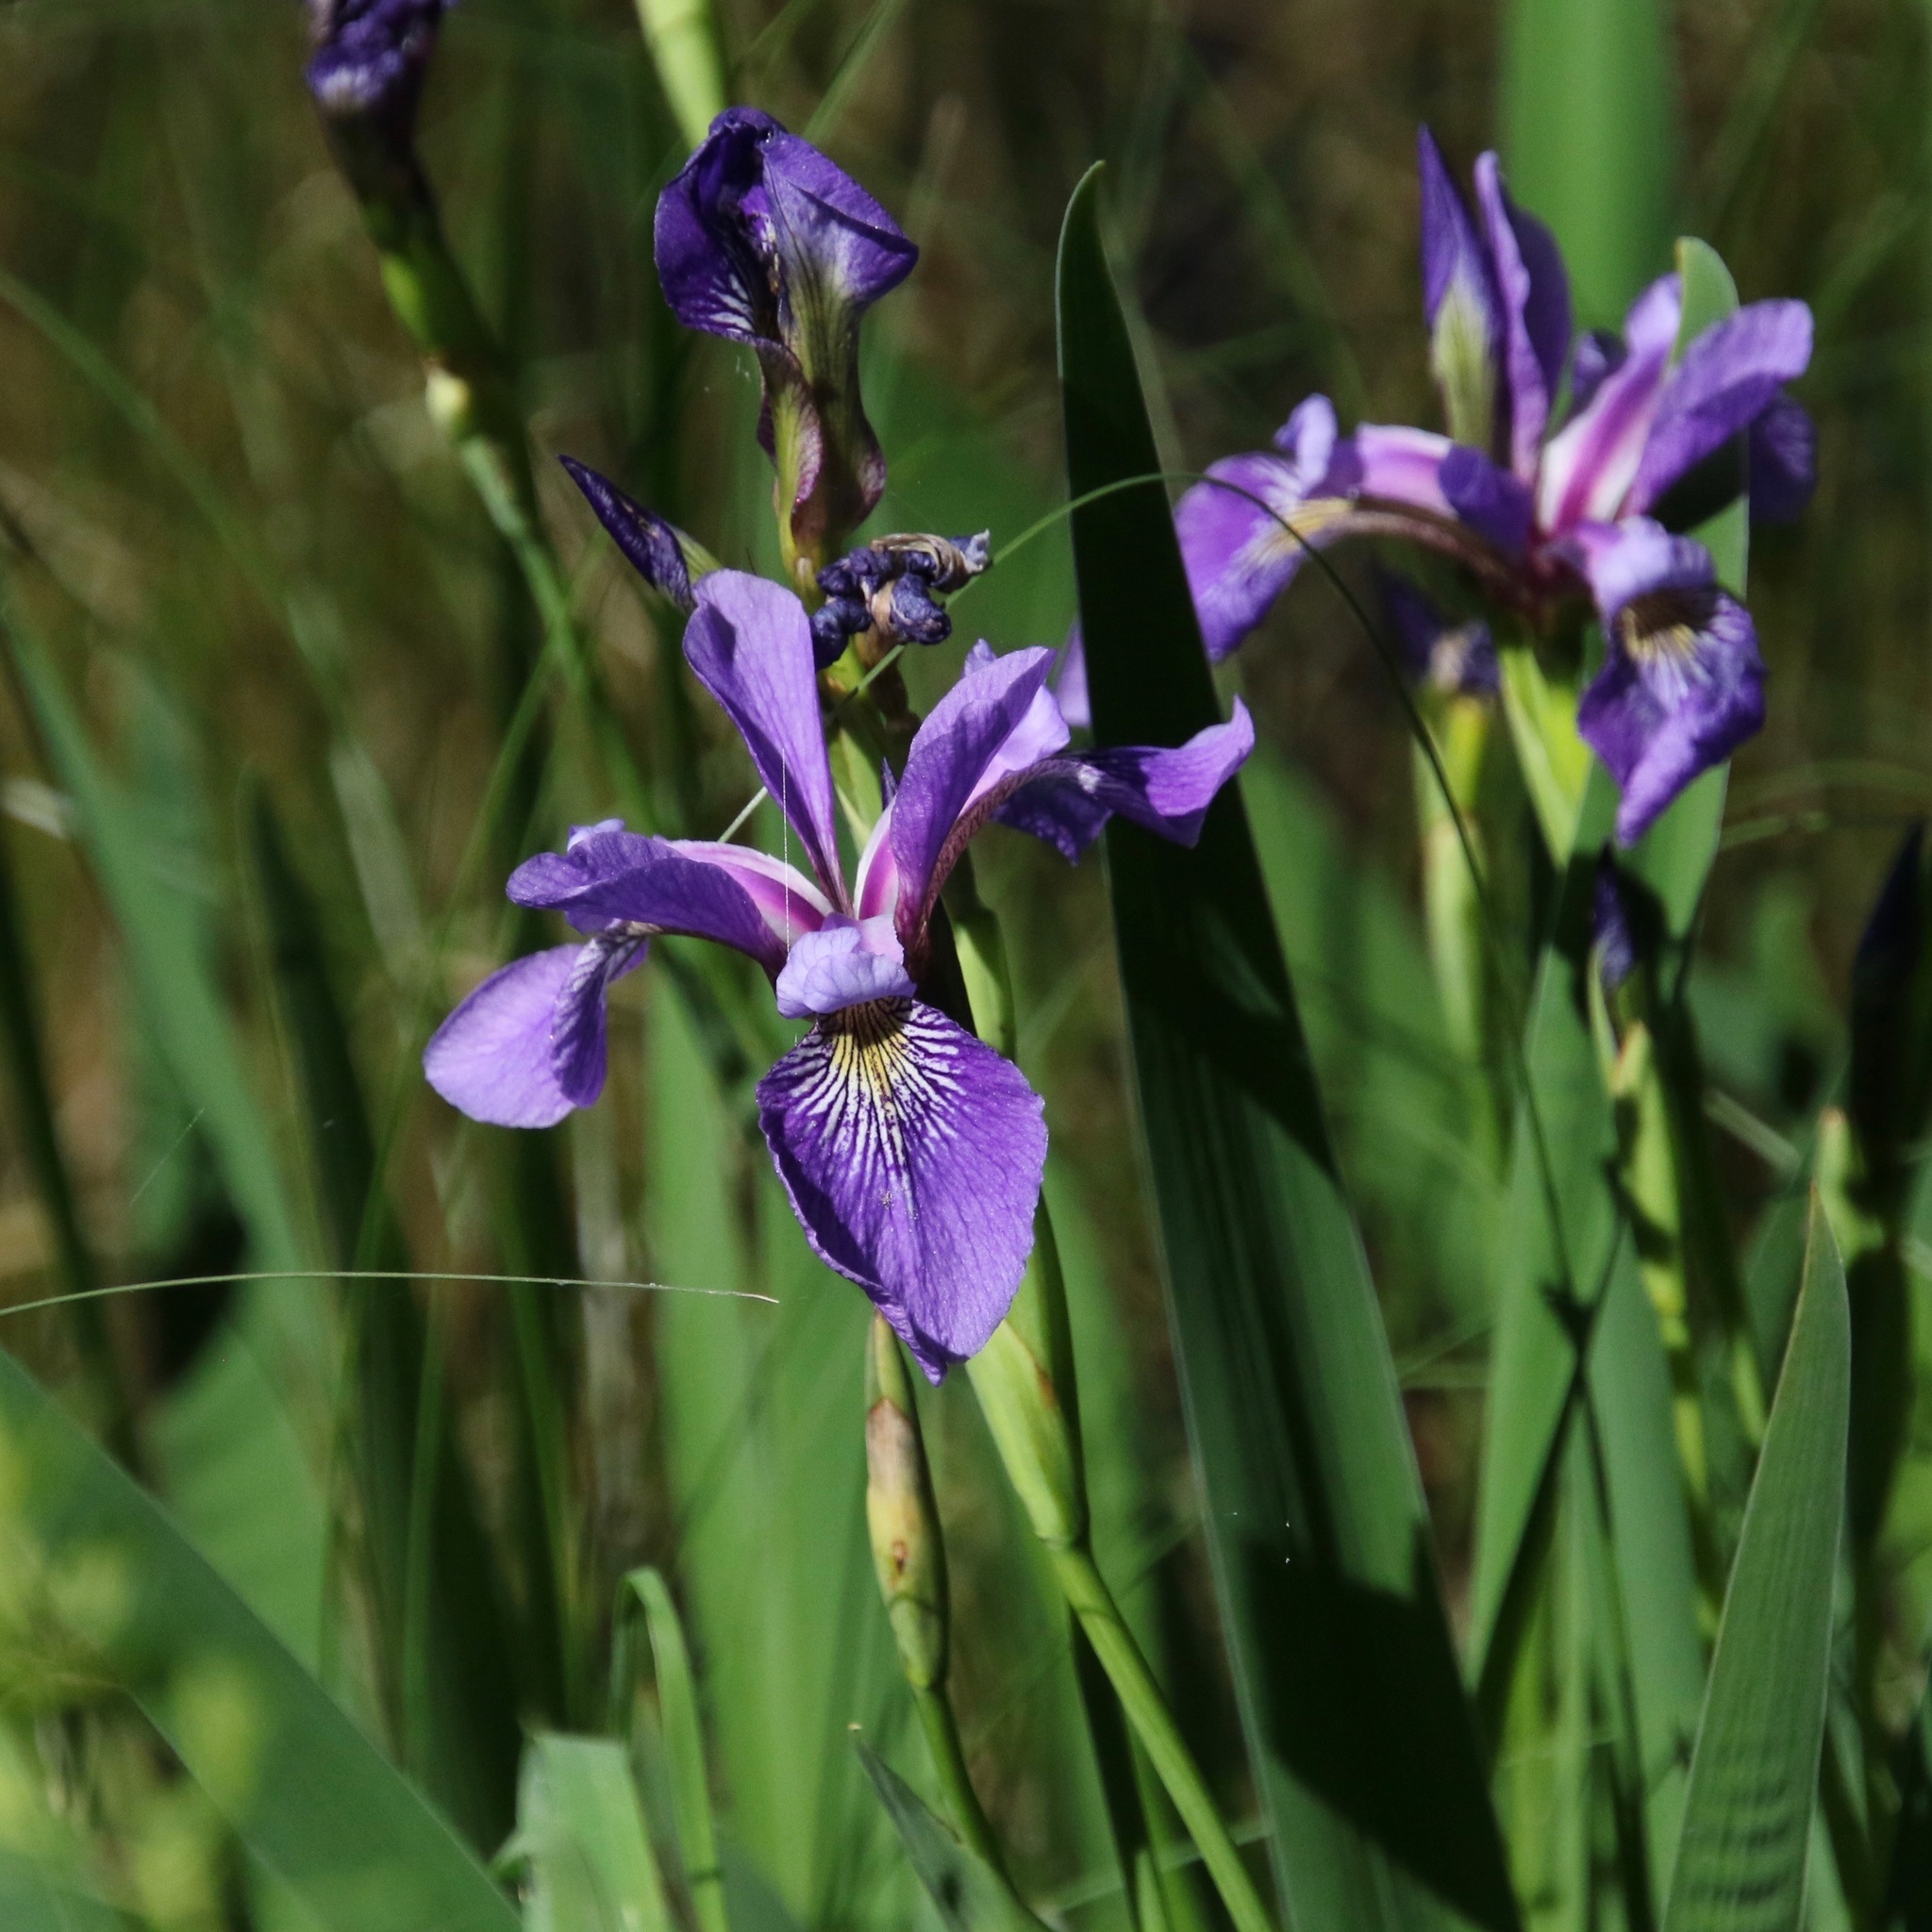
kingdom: Plantae
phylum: Tracheophyta
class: Liliopsida
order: Asparagales
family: Iridaceae
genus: Iris
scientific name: Iris versicolor
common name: Purple iris
